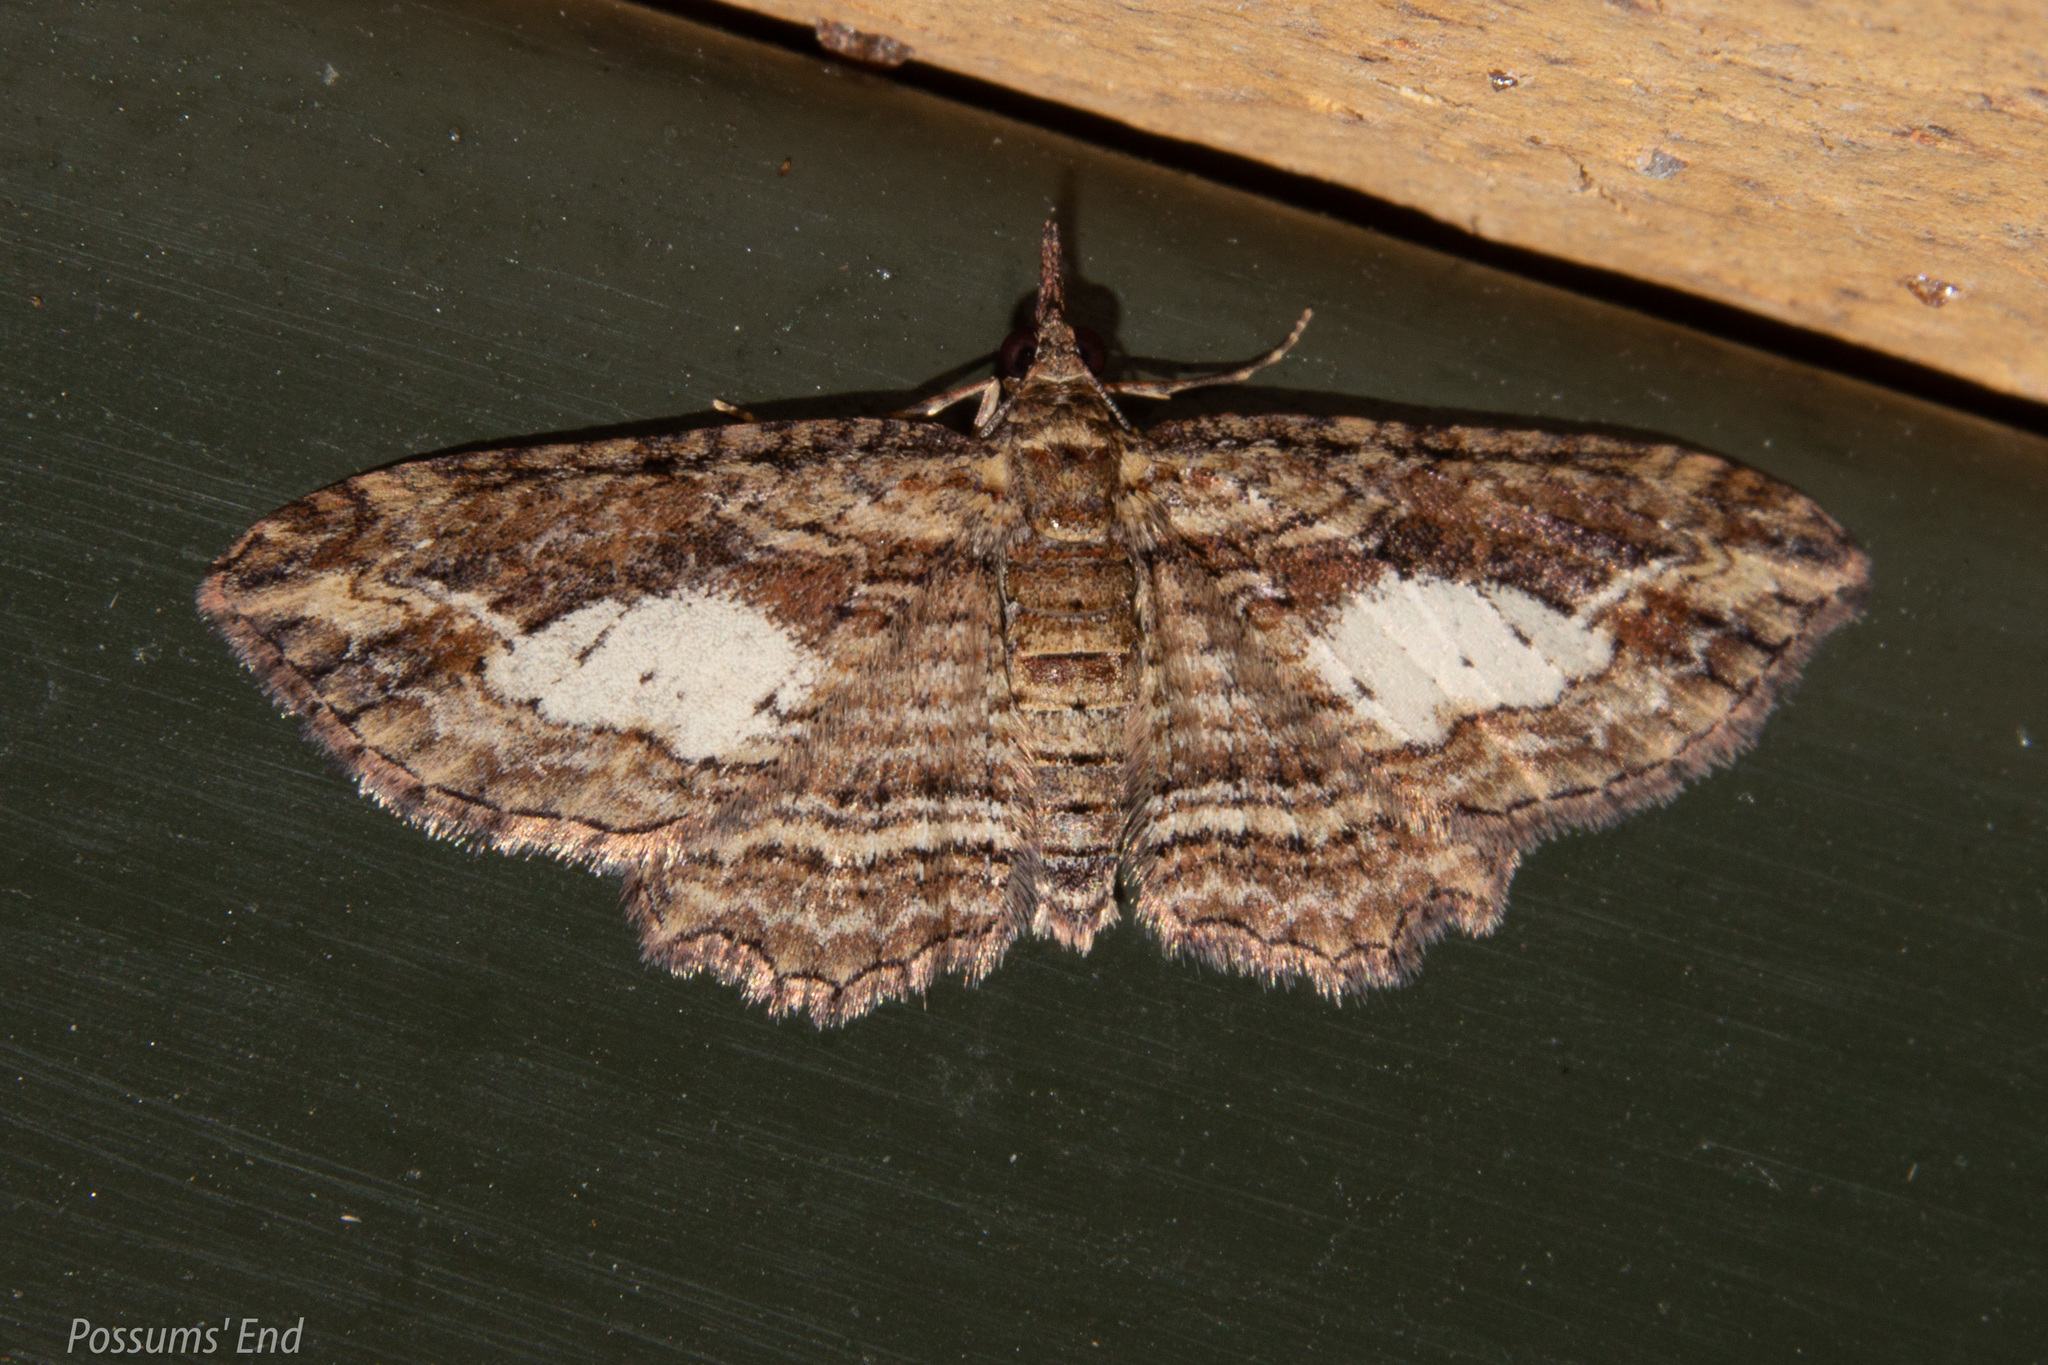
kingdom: Animalia
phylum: Arthropoda
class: Insecta
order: Lepidoptera
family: Geometridae
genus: Chloroclystis
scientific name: Chloroclystis filata
